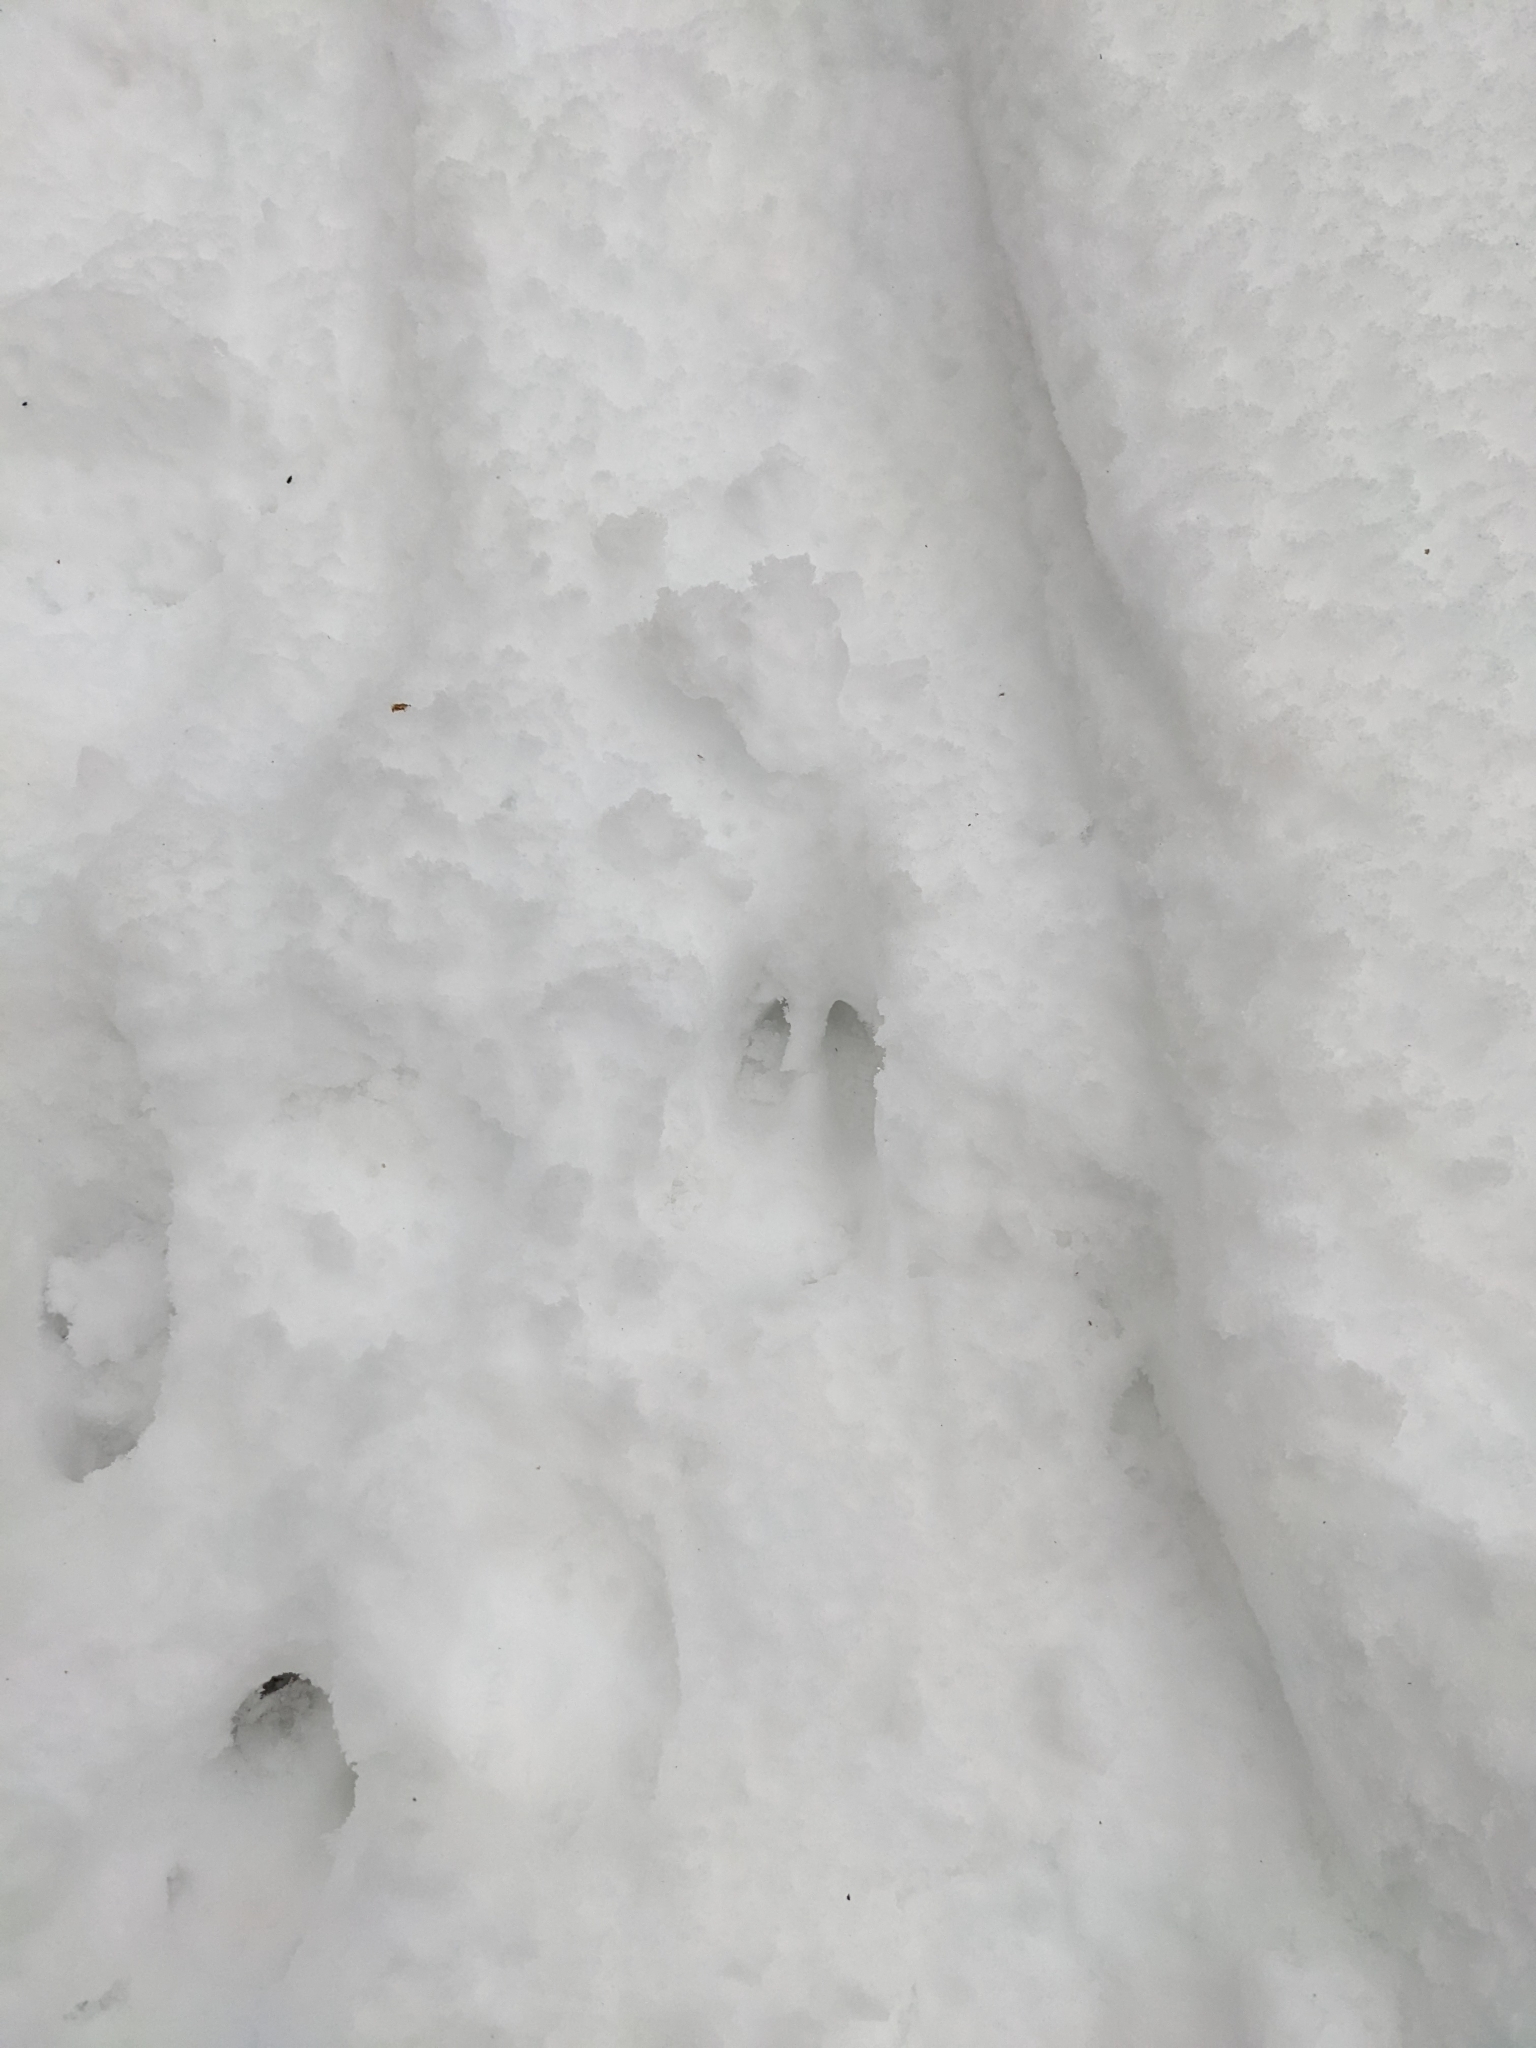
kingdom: Animalia
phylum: Chordata
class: Mammalia
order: Artiodactyla
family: Cervidae
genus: Odocoileus
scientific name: Odocoileus virginianus
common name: White-tailed deer
